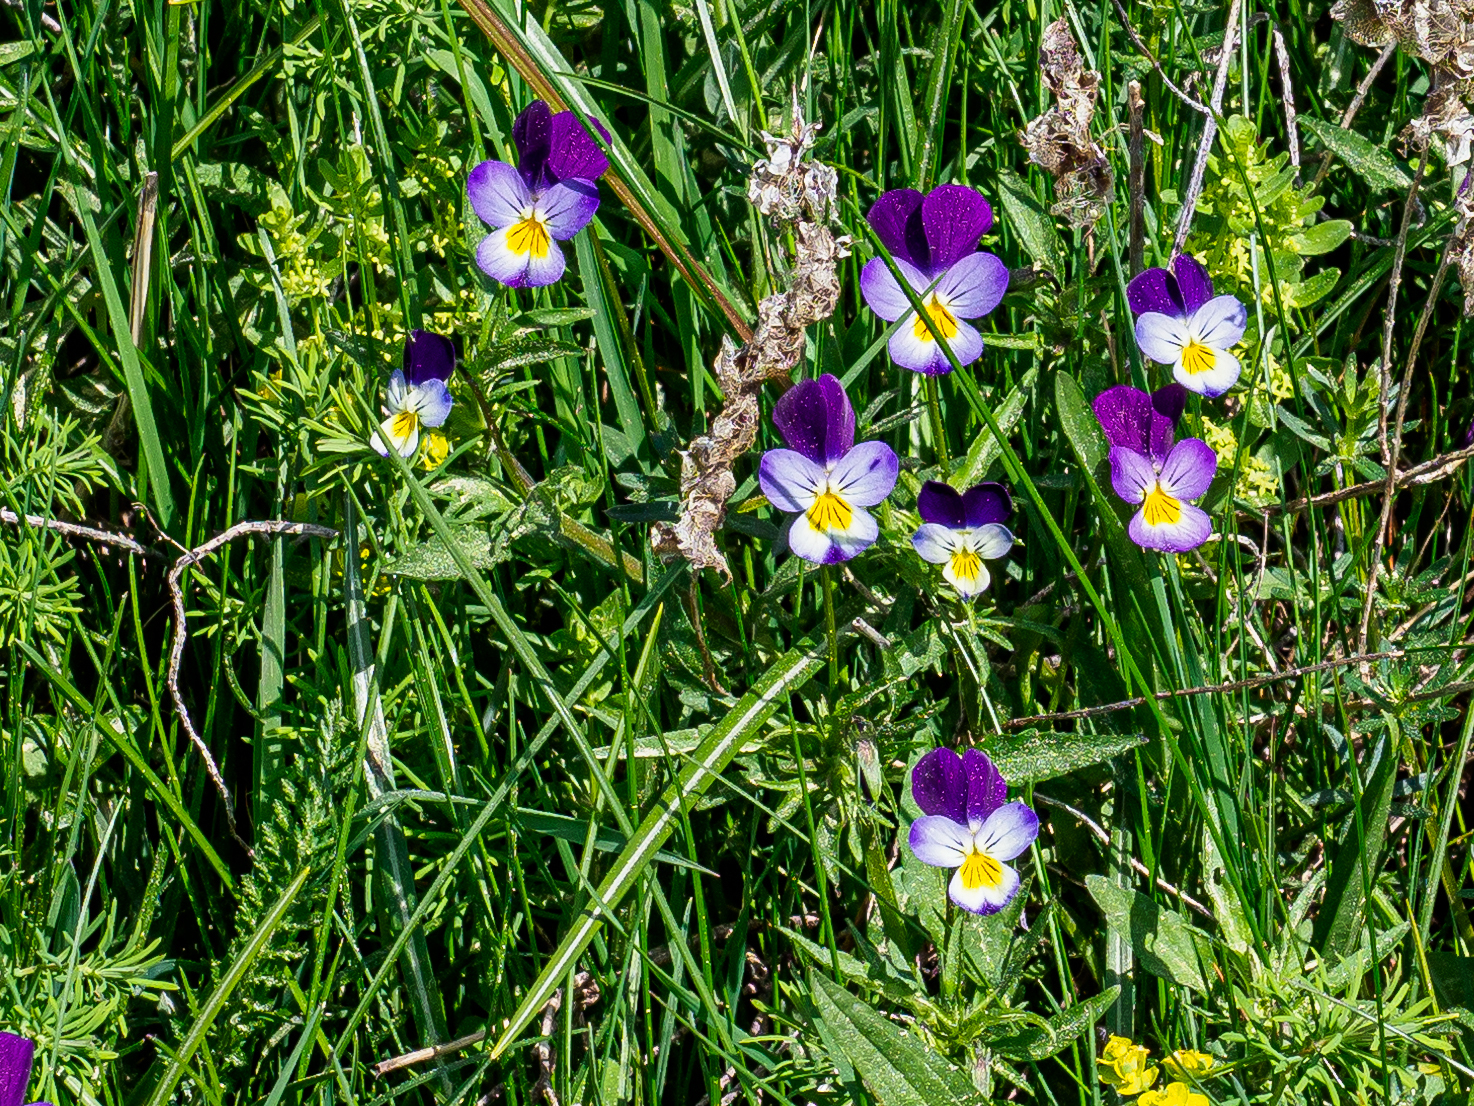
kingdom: Plantae
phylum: Tracheophyta
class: Magnoliopsida
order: Malpighiales
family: Violaceae
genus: Viola
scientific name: Viola tricolor
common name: Pansy
